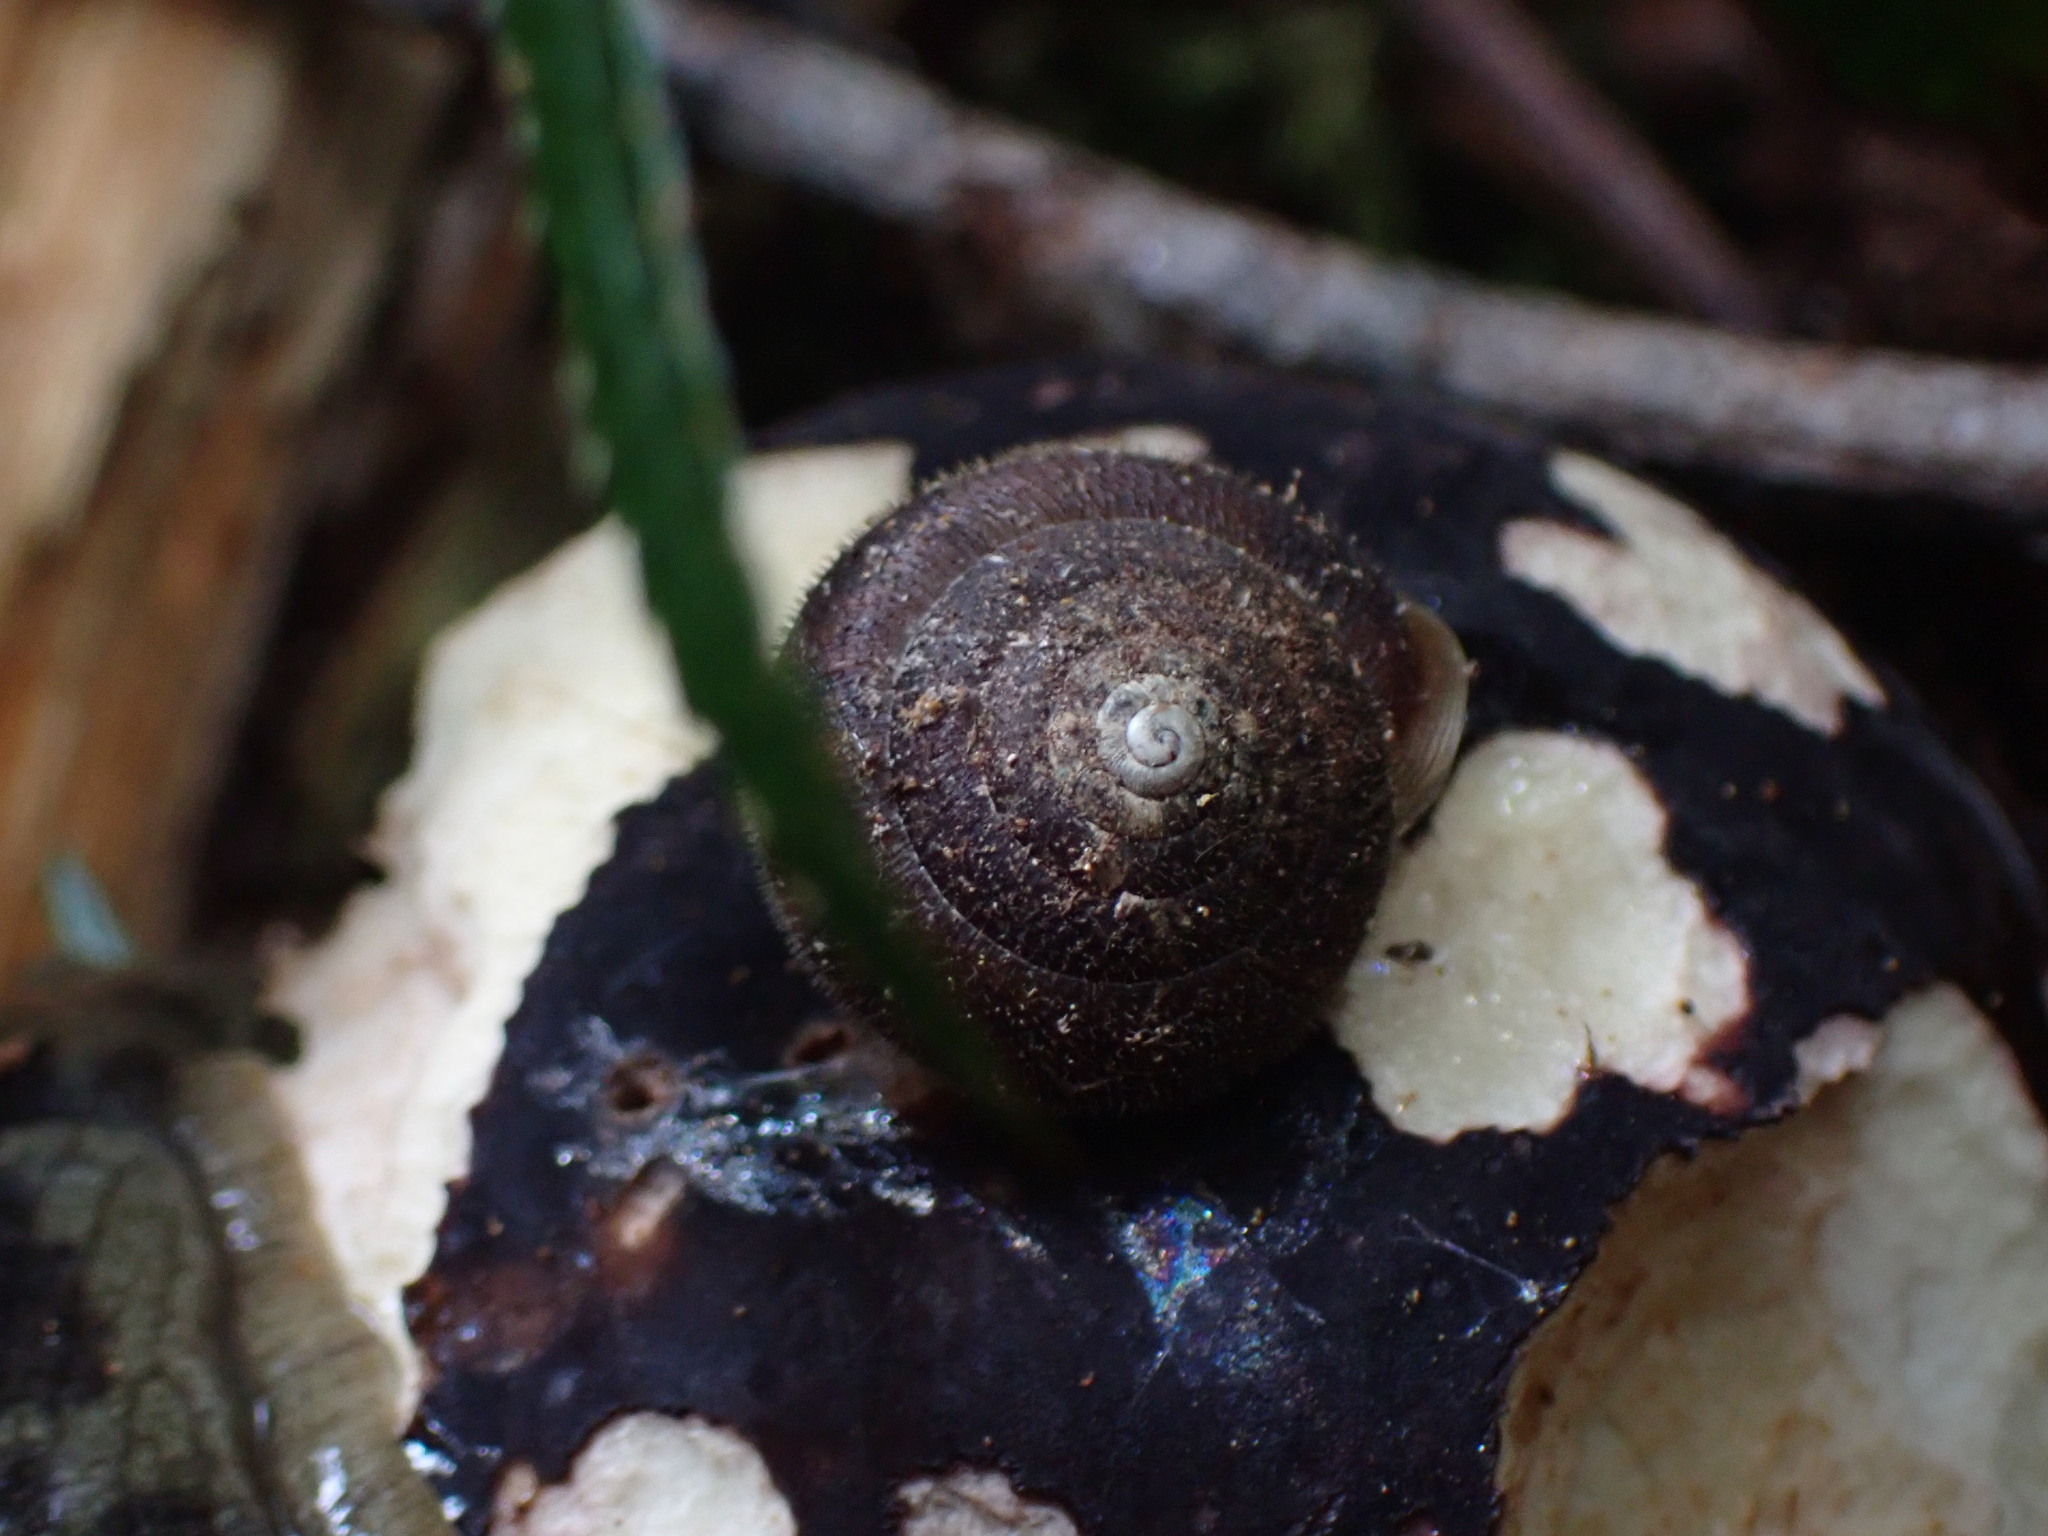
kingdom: Animalia
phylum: Mollusca
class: Gastropoda
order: Stylommatophora
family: Polygyridae
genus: Vespericola
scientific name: Vespericola columbianus
